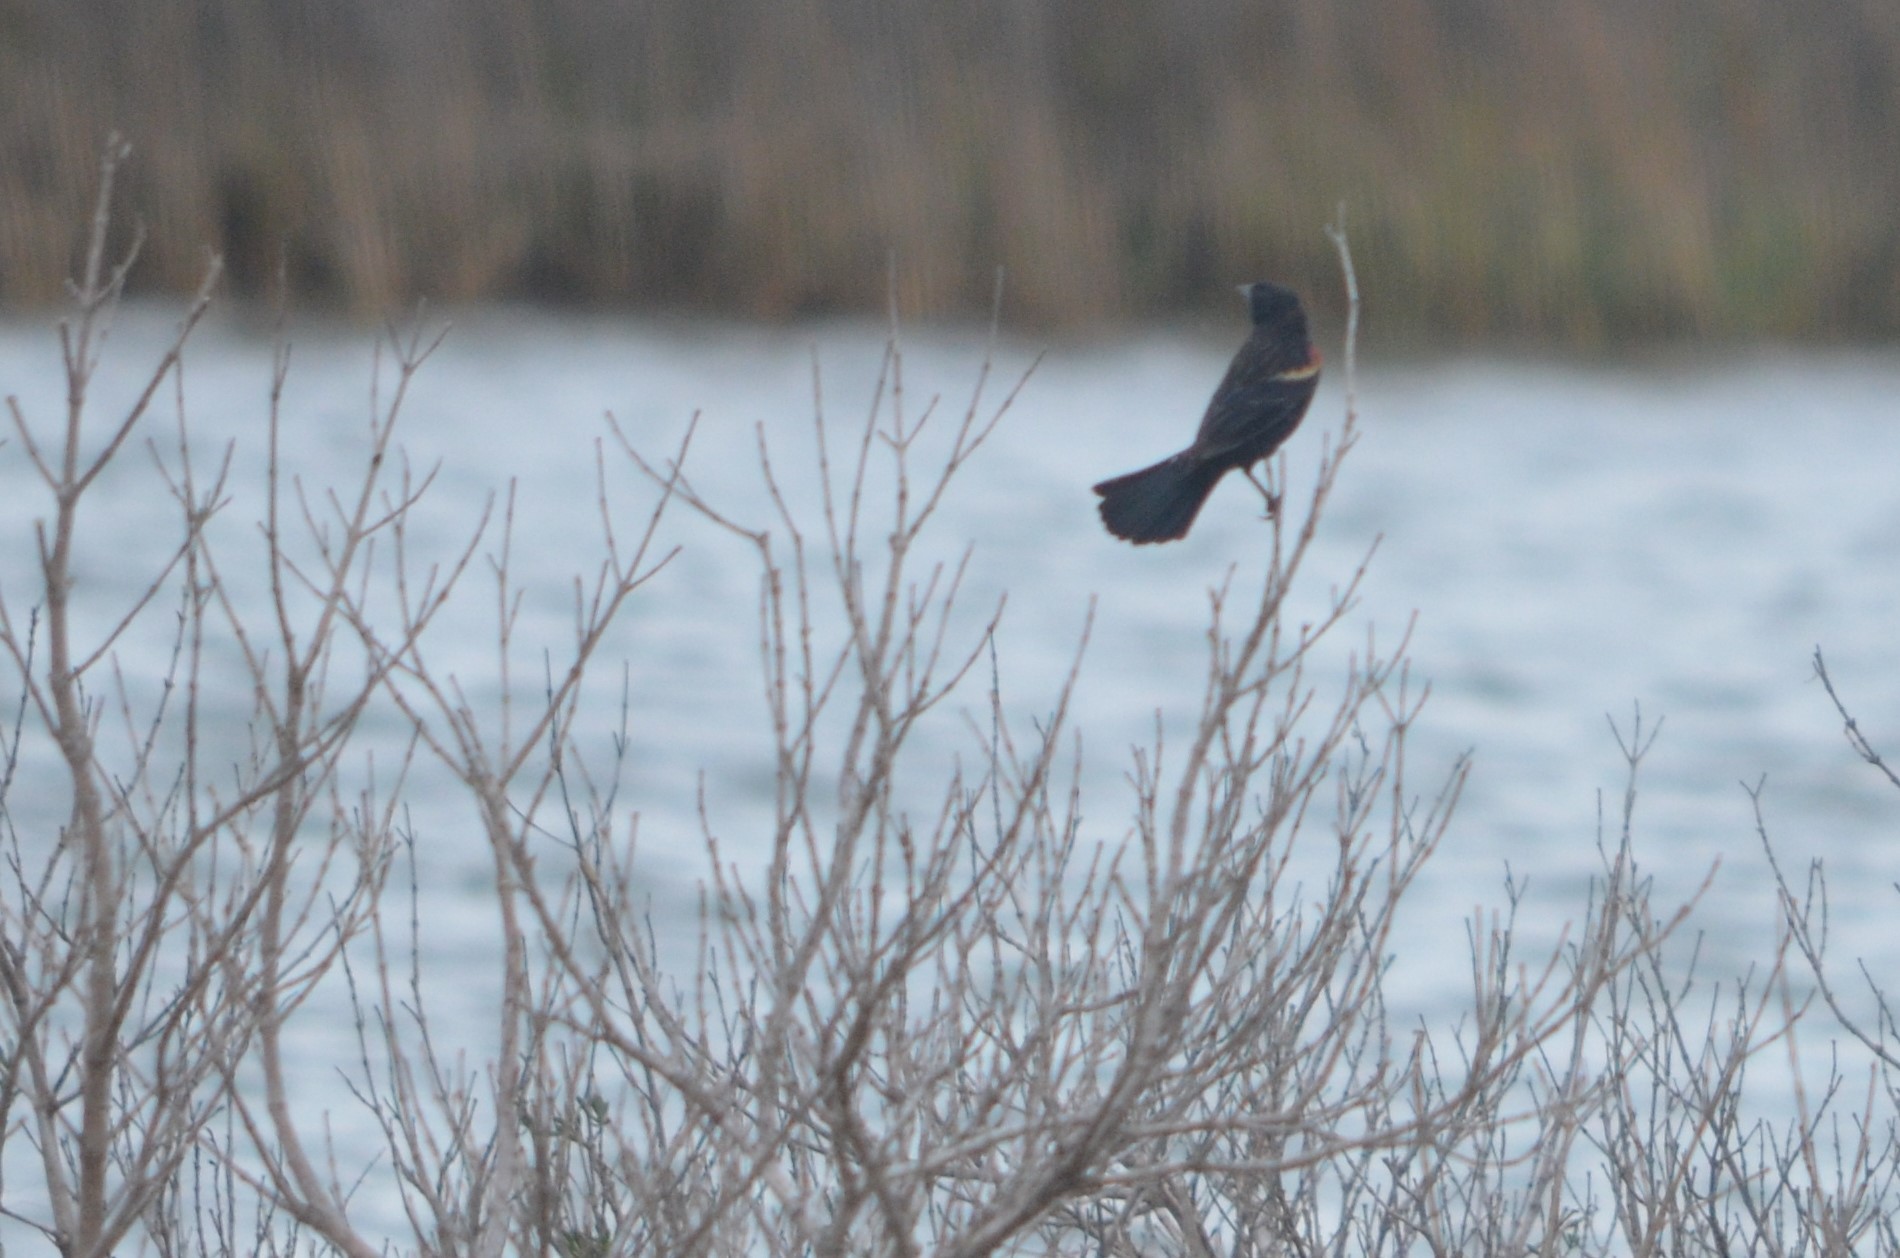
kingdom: Animalia
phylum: Chordata
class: Aves
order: Passeriformes
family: Icteridae
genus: Agelaius
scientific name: Agelaius phoeniceus
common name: Red-winged blackbird
